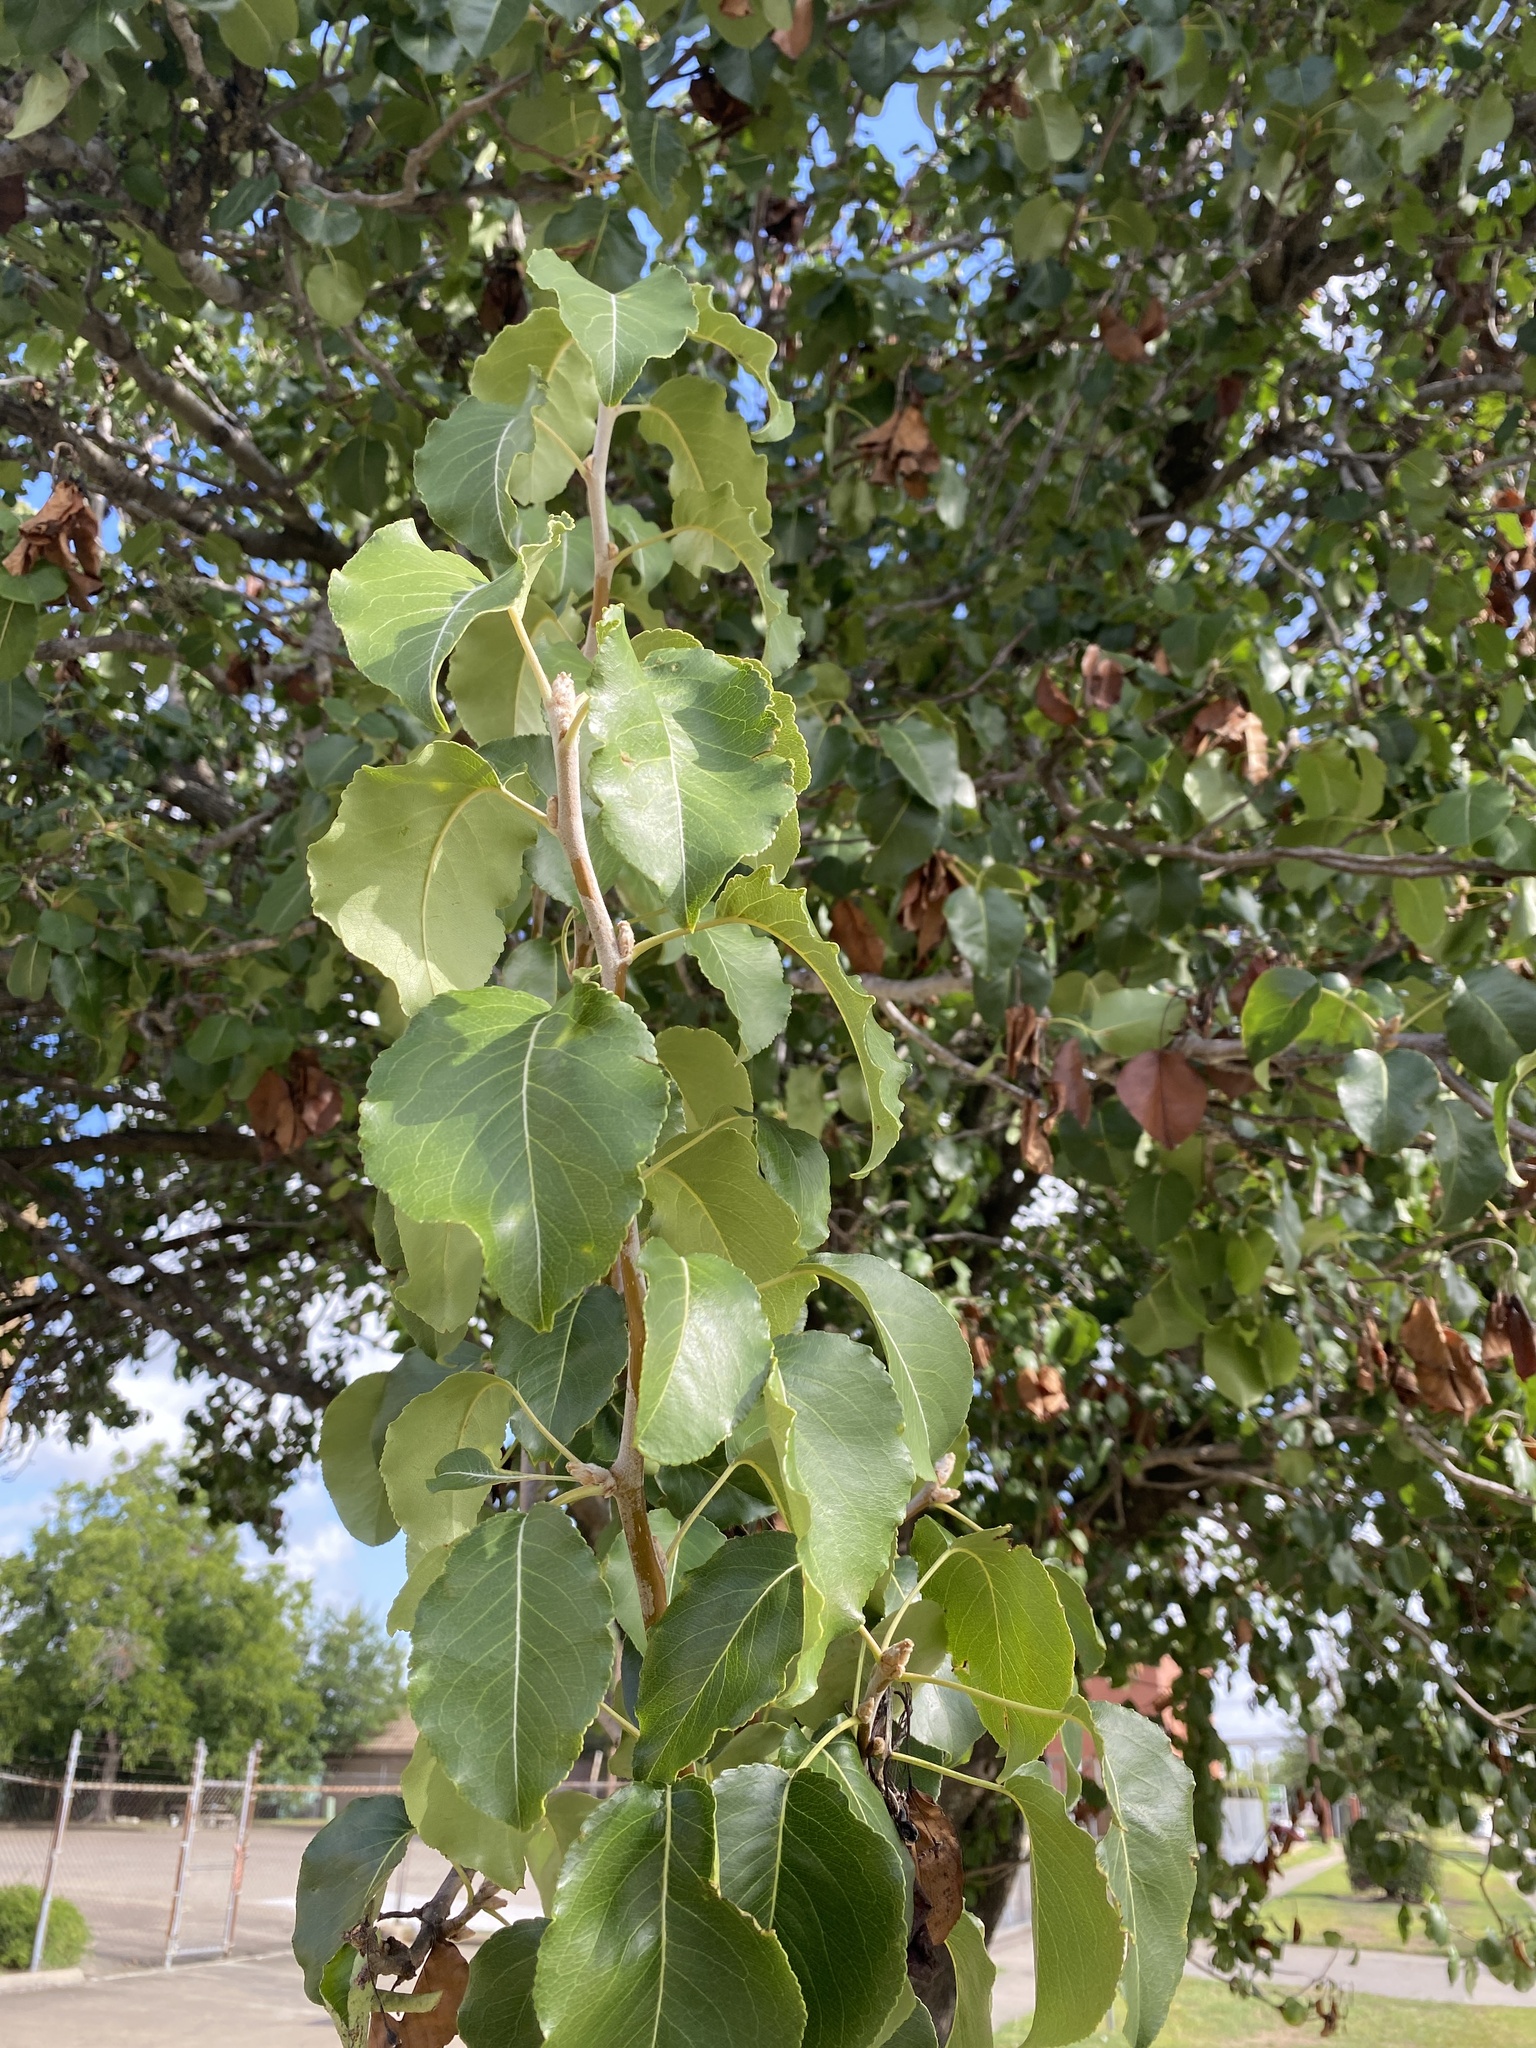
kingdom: Plantae
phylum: Tracheophyta
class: Magnoliopsida
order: Rosales
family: Rosaceae
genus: Pyrus
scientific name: Pyrus calleryana
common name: Callery pear
